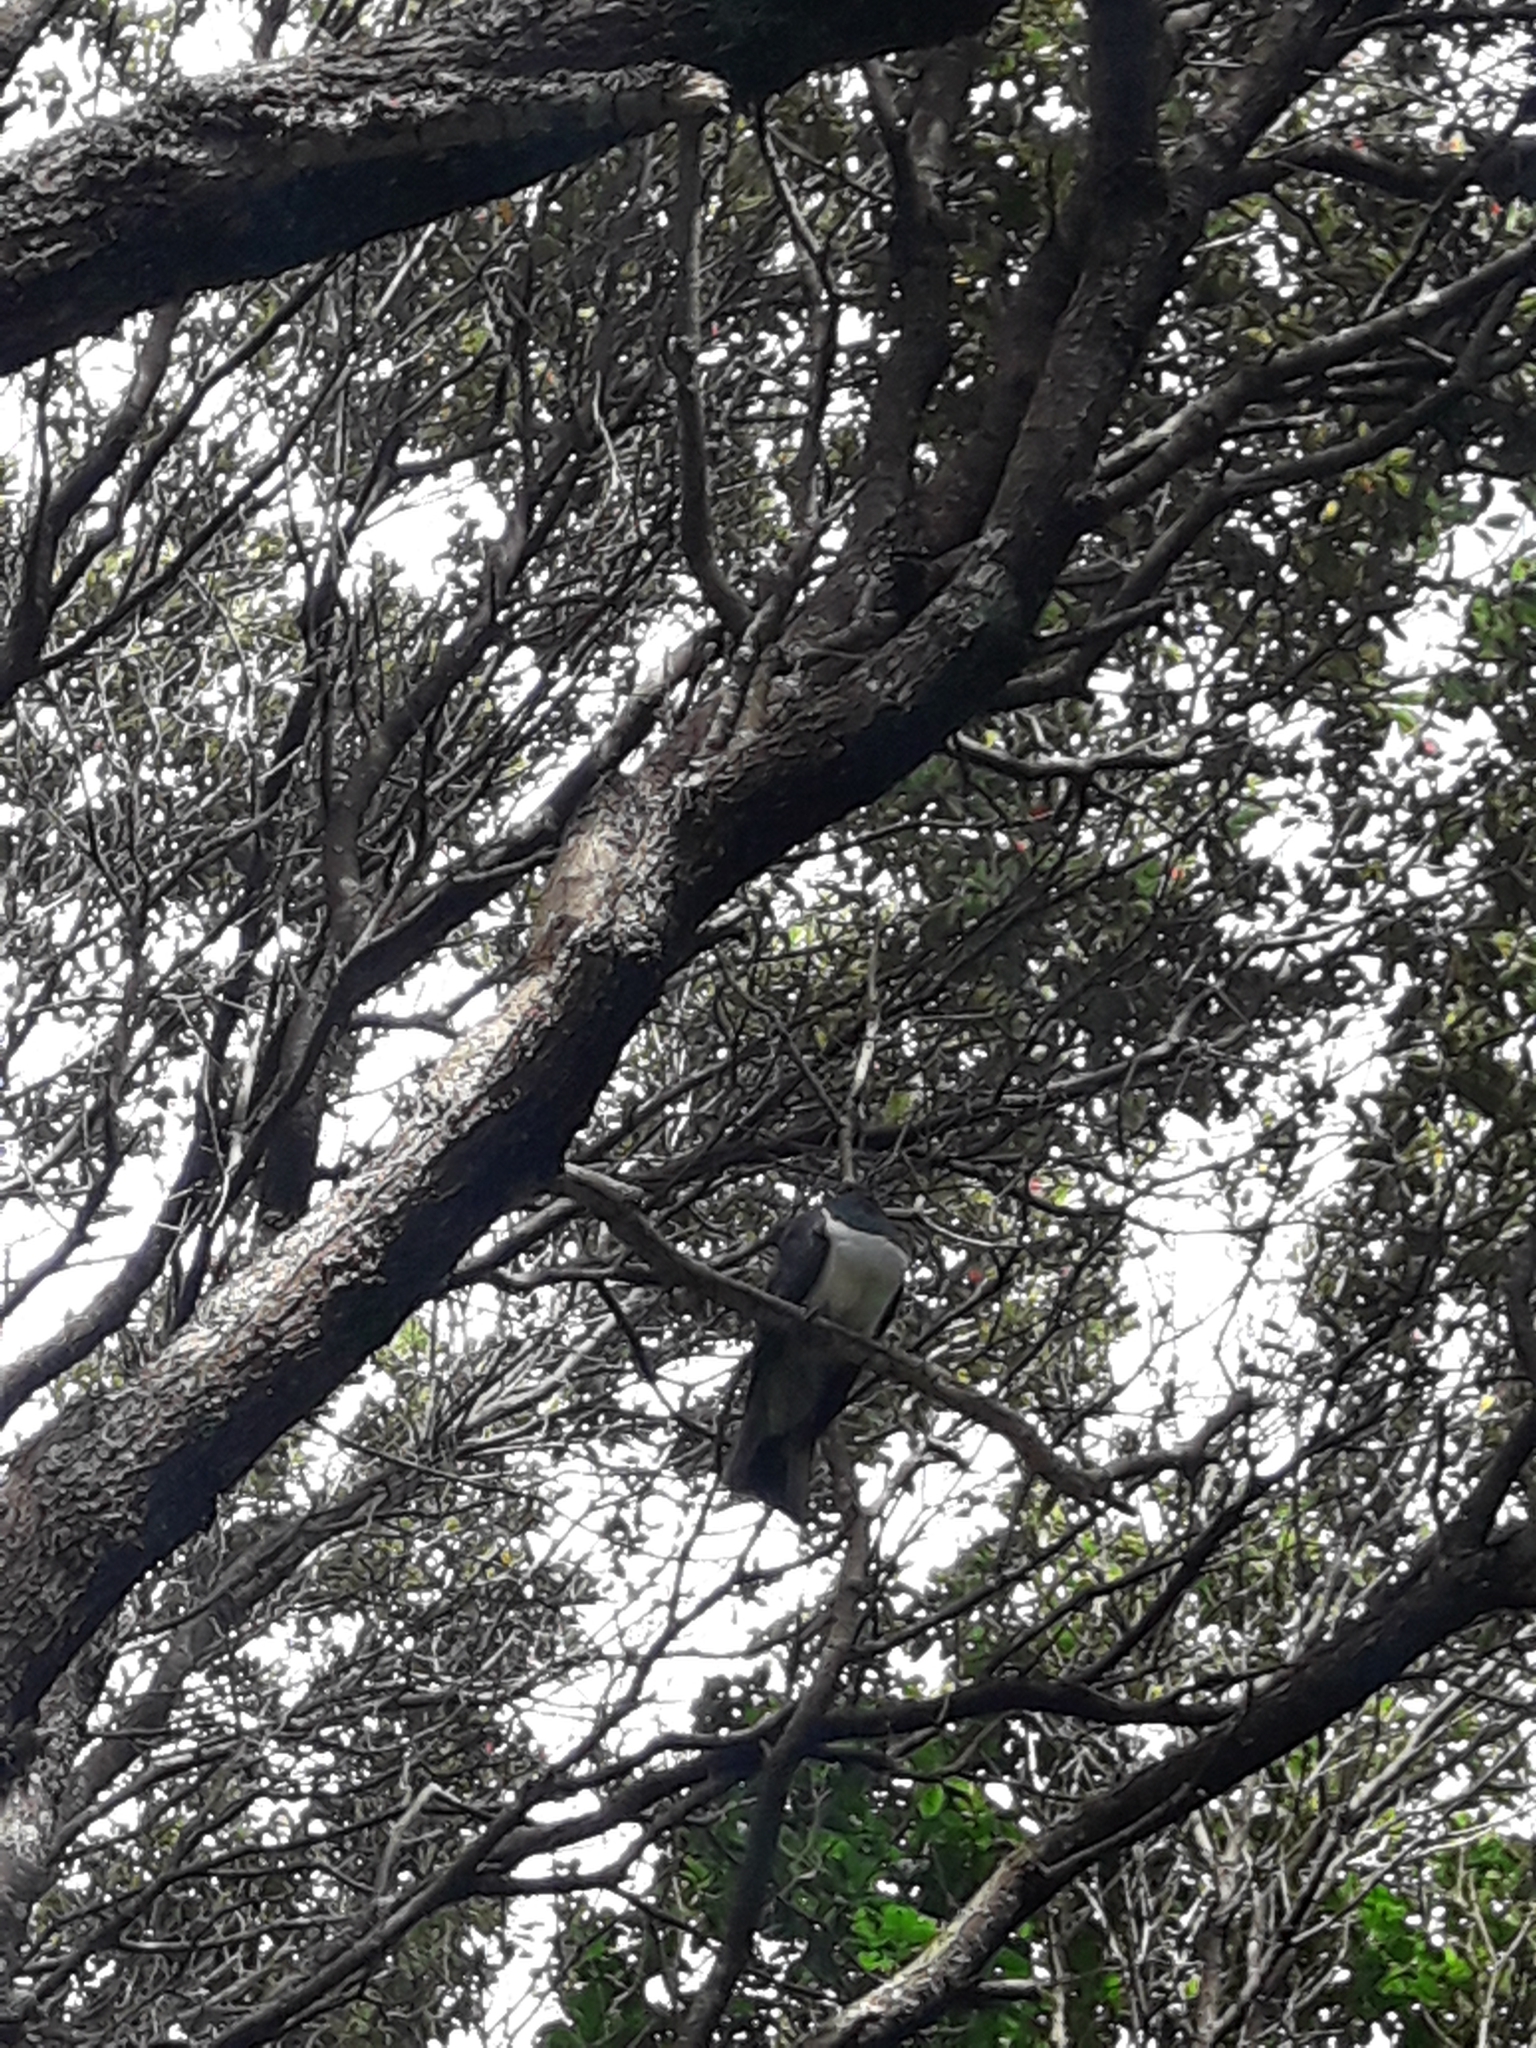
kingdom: Animalia
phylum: Chordata
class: Aves
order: Columbiformes
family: Columbidae
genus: Hemiphaga
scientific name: Hemiphaga novaeseelandiae
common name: New zealand pigeon
